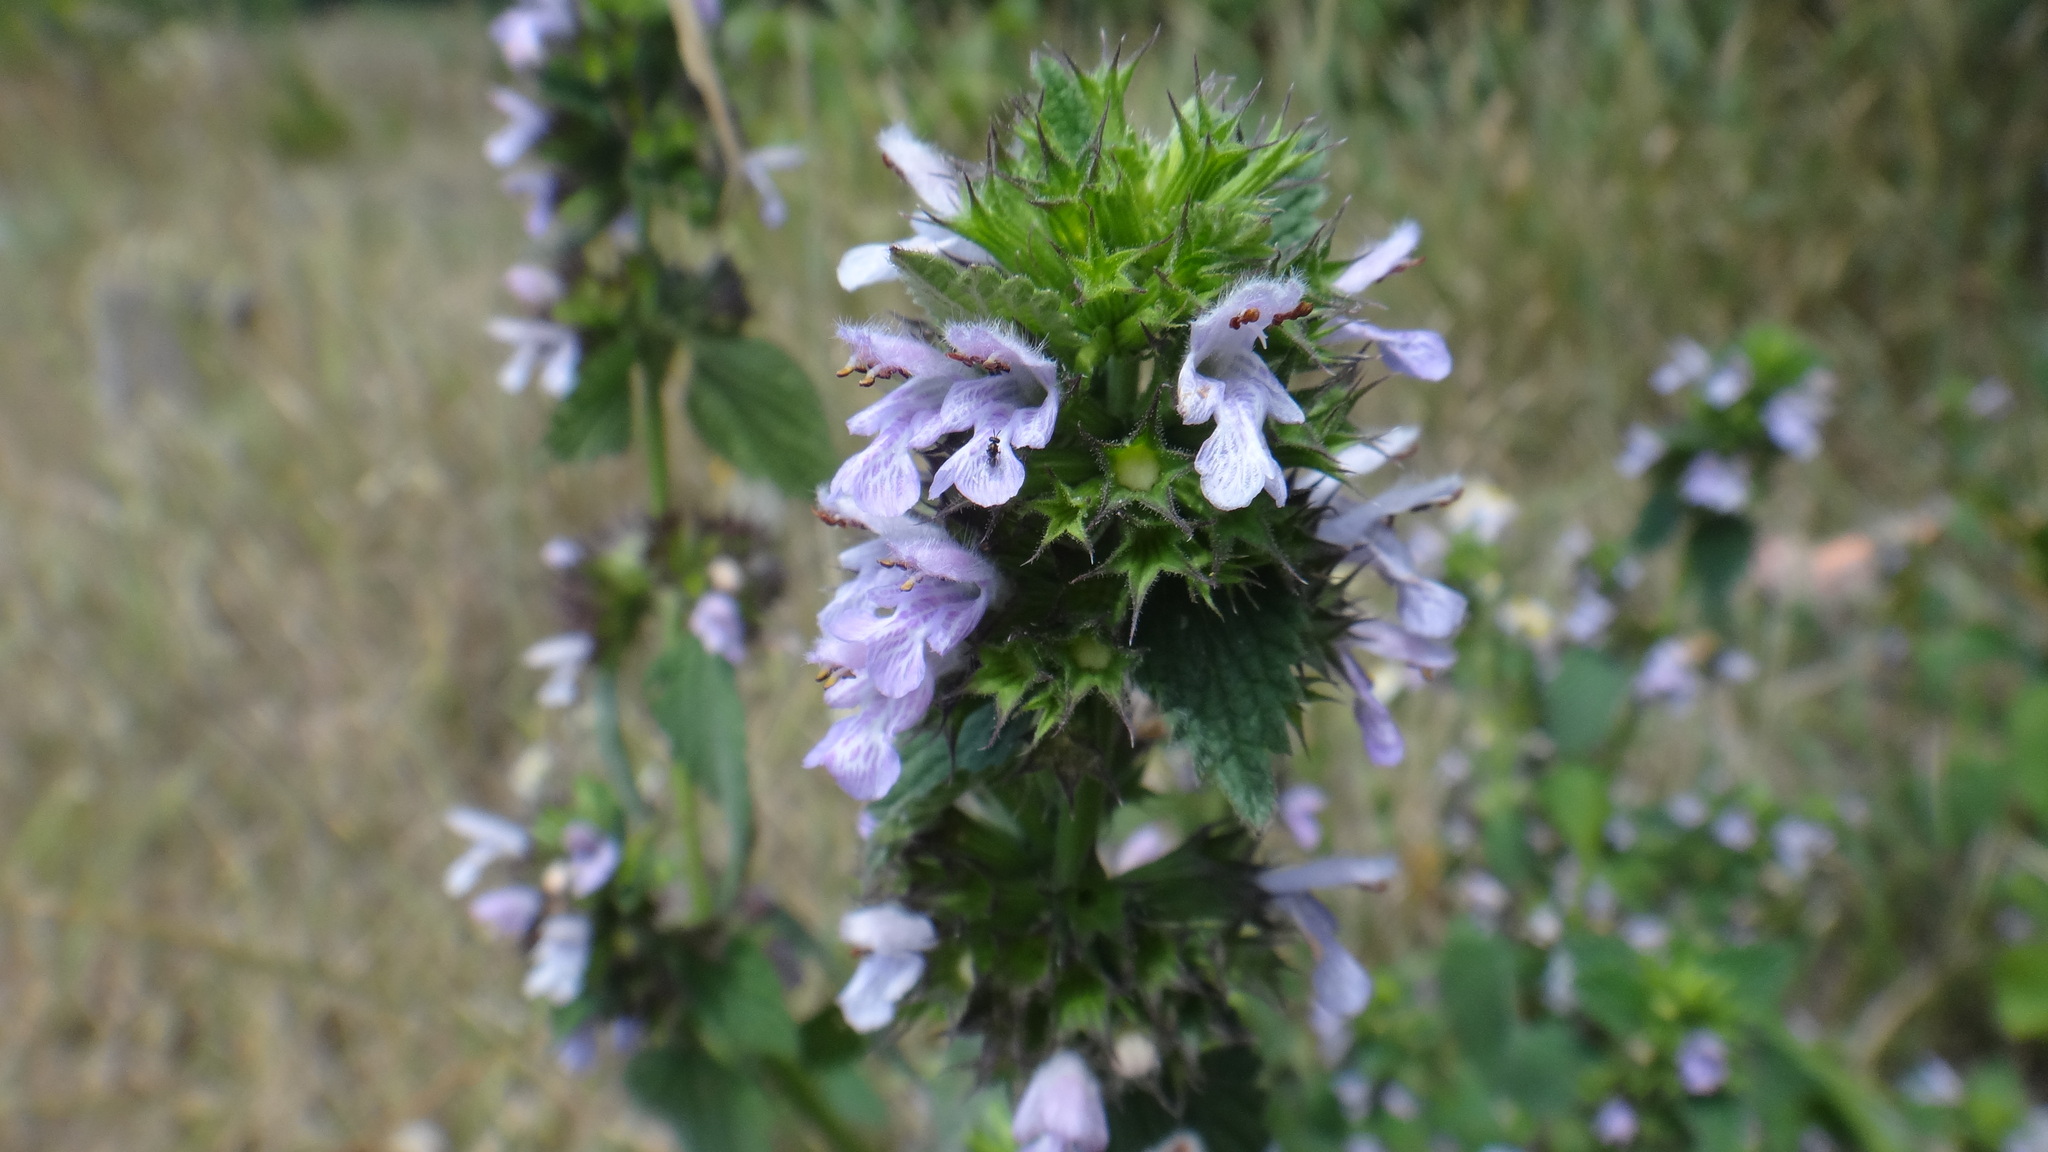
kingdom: Plantae
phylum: Tracheophyta
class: Magnoliopsida
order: Lamiales
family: Lamiaceae
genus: Ballota
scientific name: Ballota nigra
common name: Black horehound
